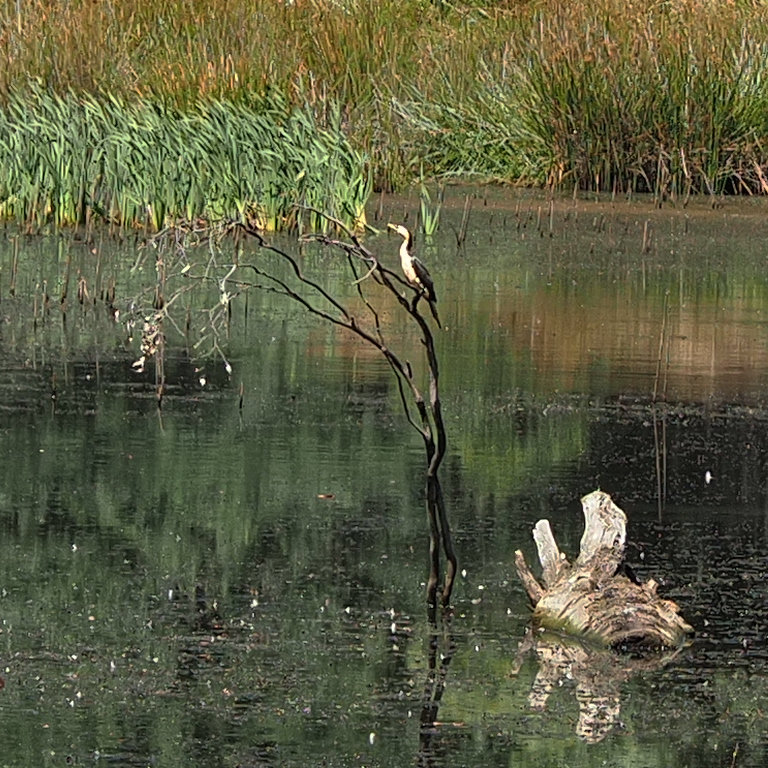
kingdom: Animalia
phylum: Chordata
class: Aves
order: Suliformes
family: Phalacrocoracidae
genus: Microcarbo
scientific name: Microcarbo melanoleucos
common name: Little pied cormorant
